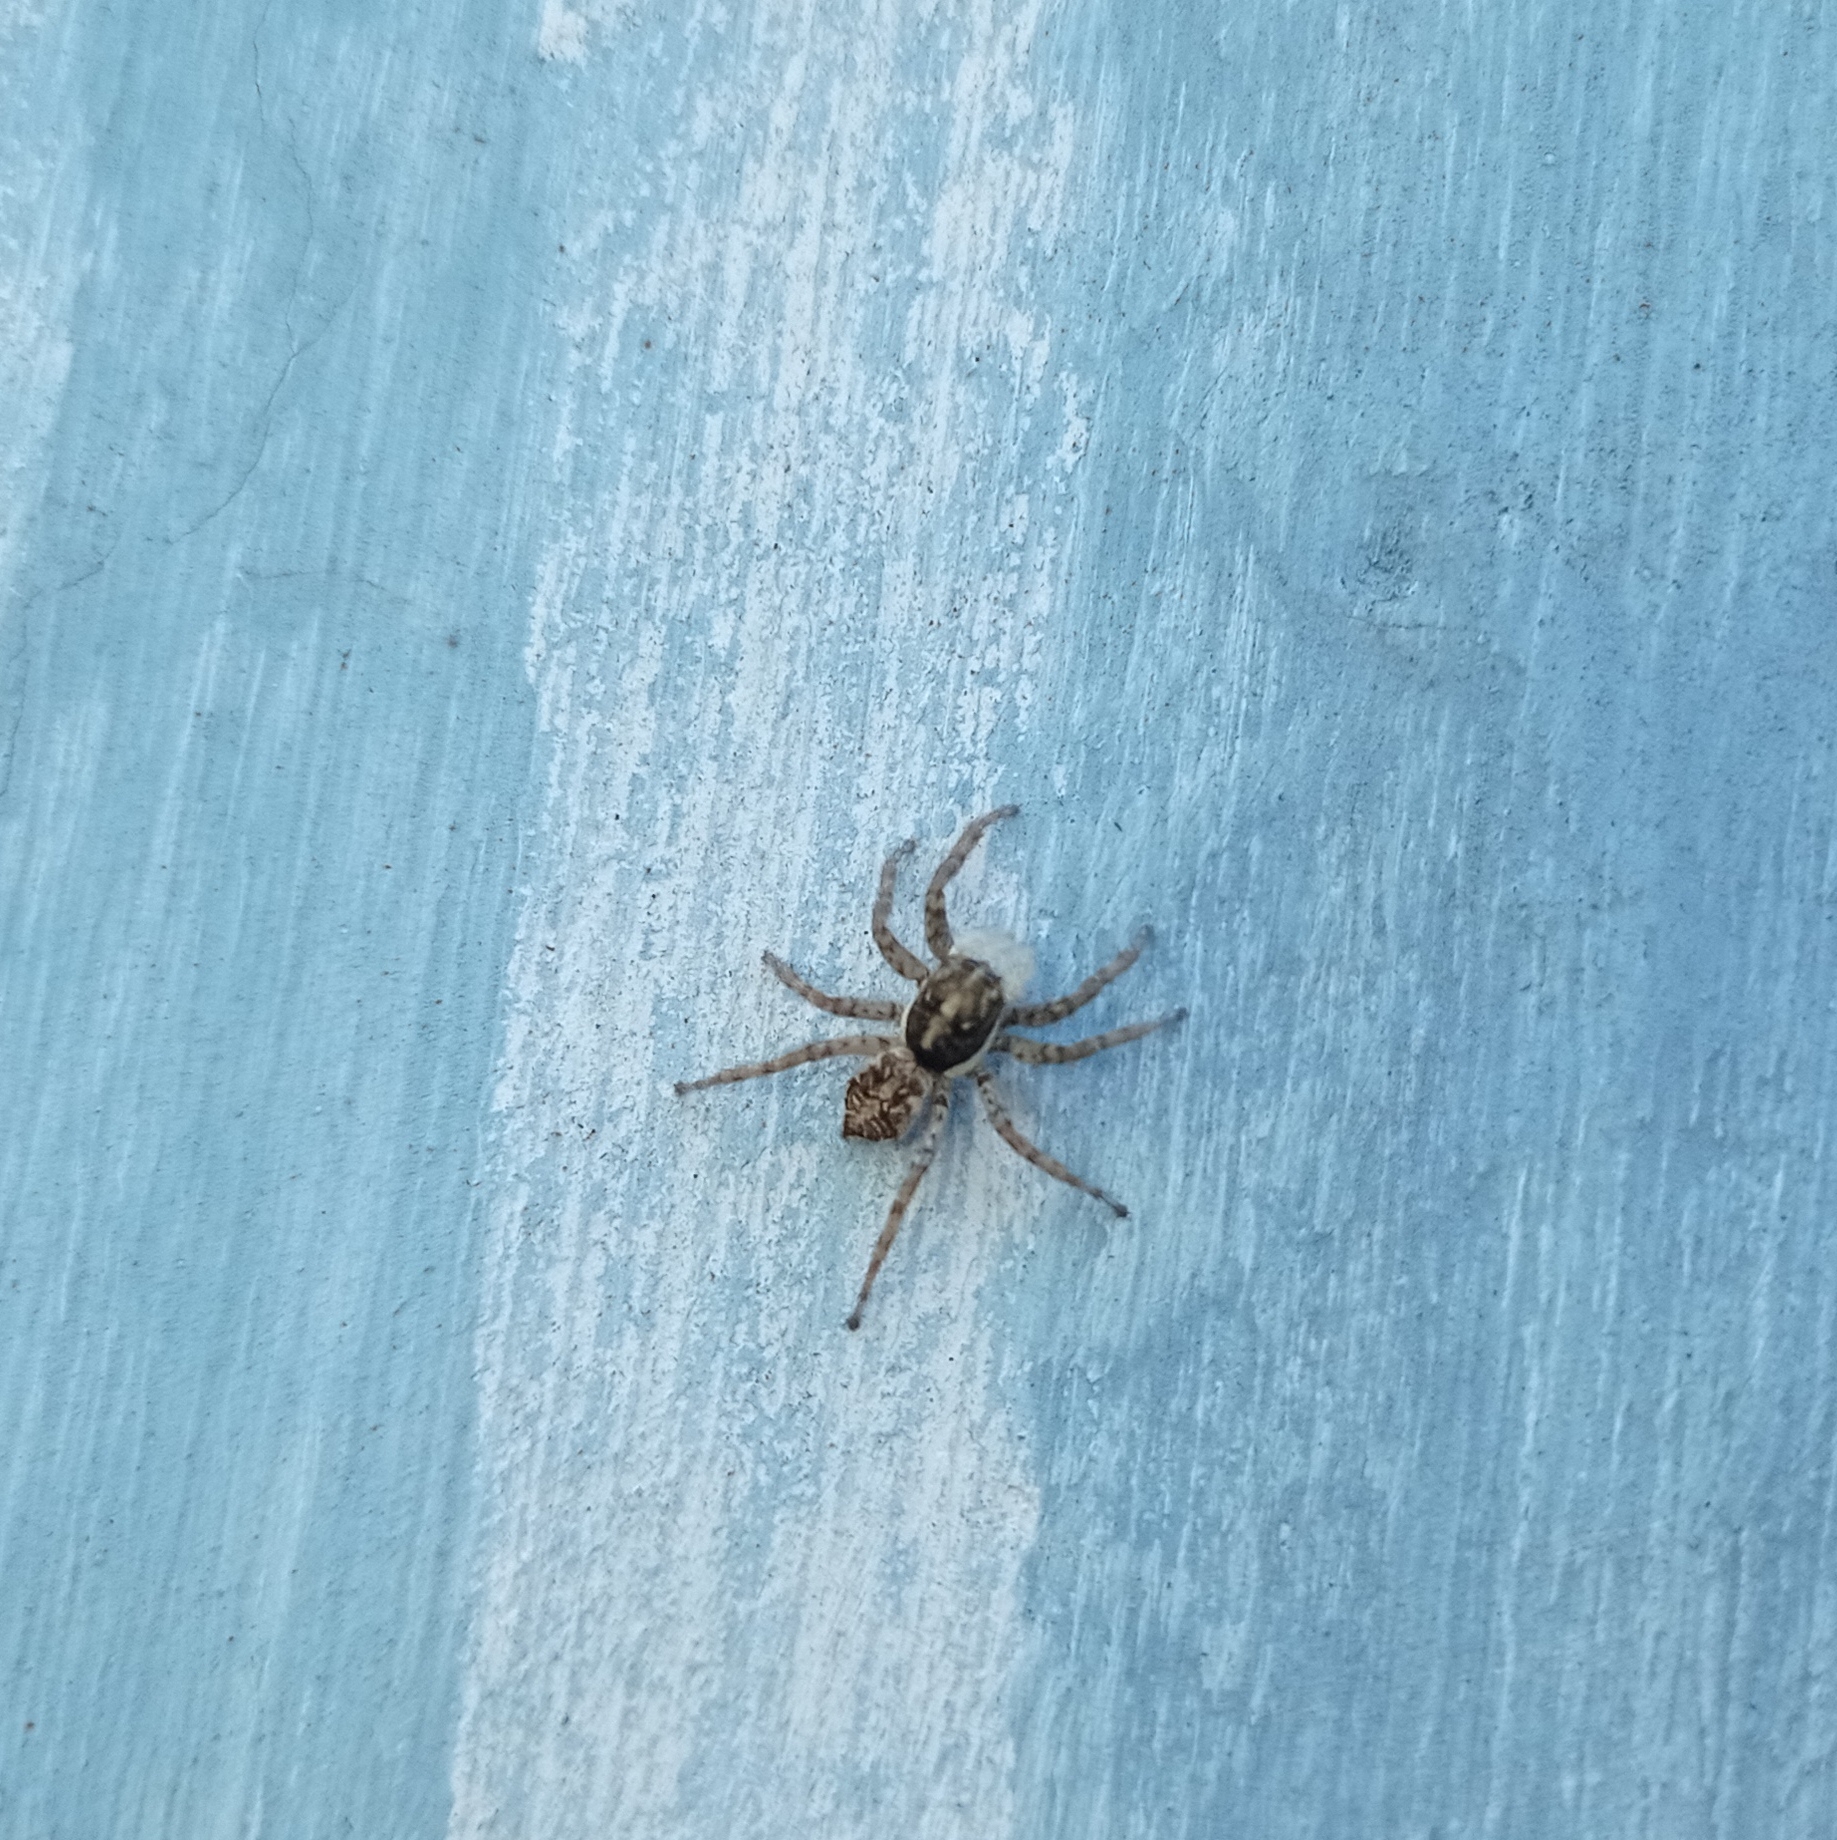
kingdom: Animalia
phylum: Arthropoda
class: Arachnida
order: Araneae
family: Salticidae
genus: Menemerus
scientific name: Menemerus semilimbatus
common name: Jumping spider
